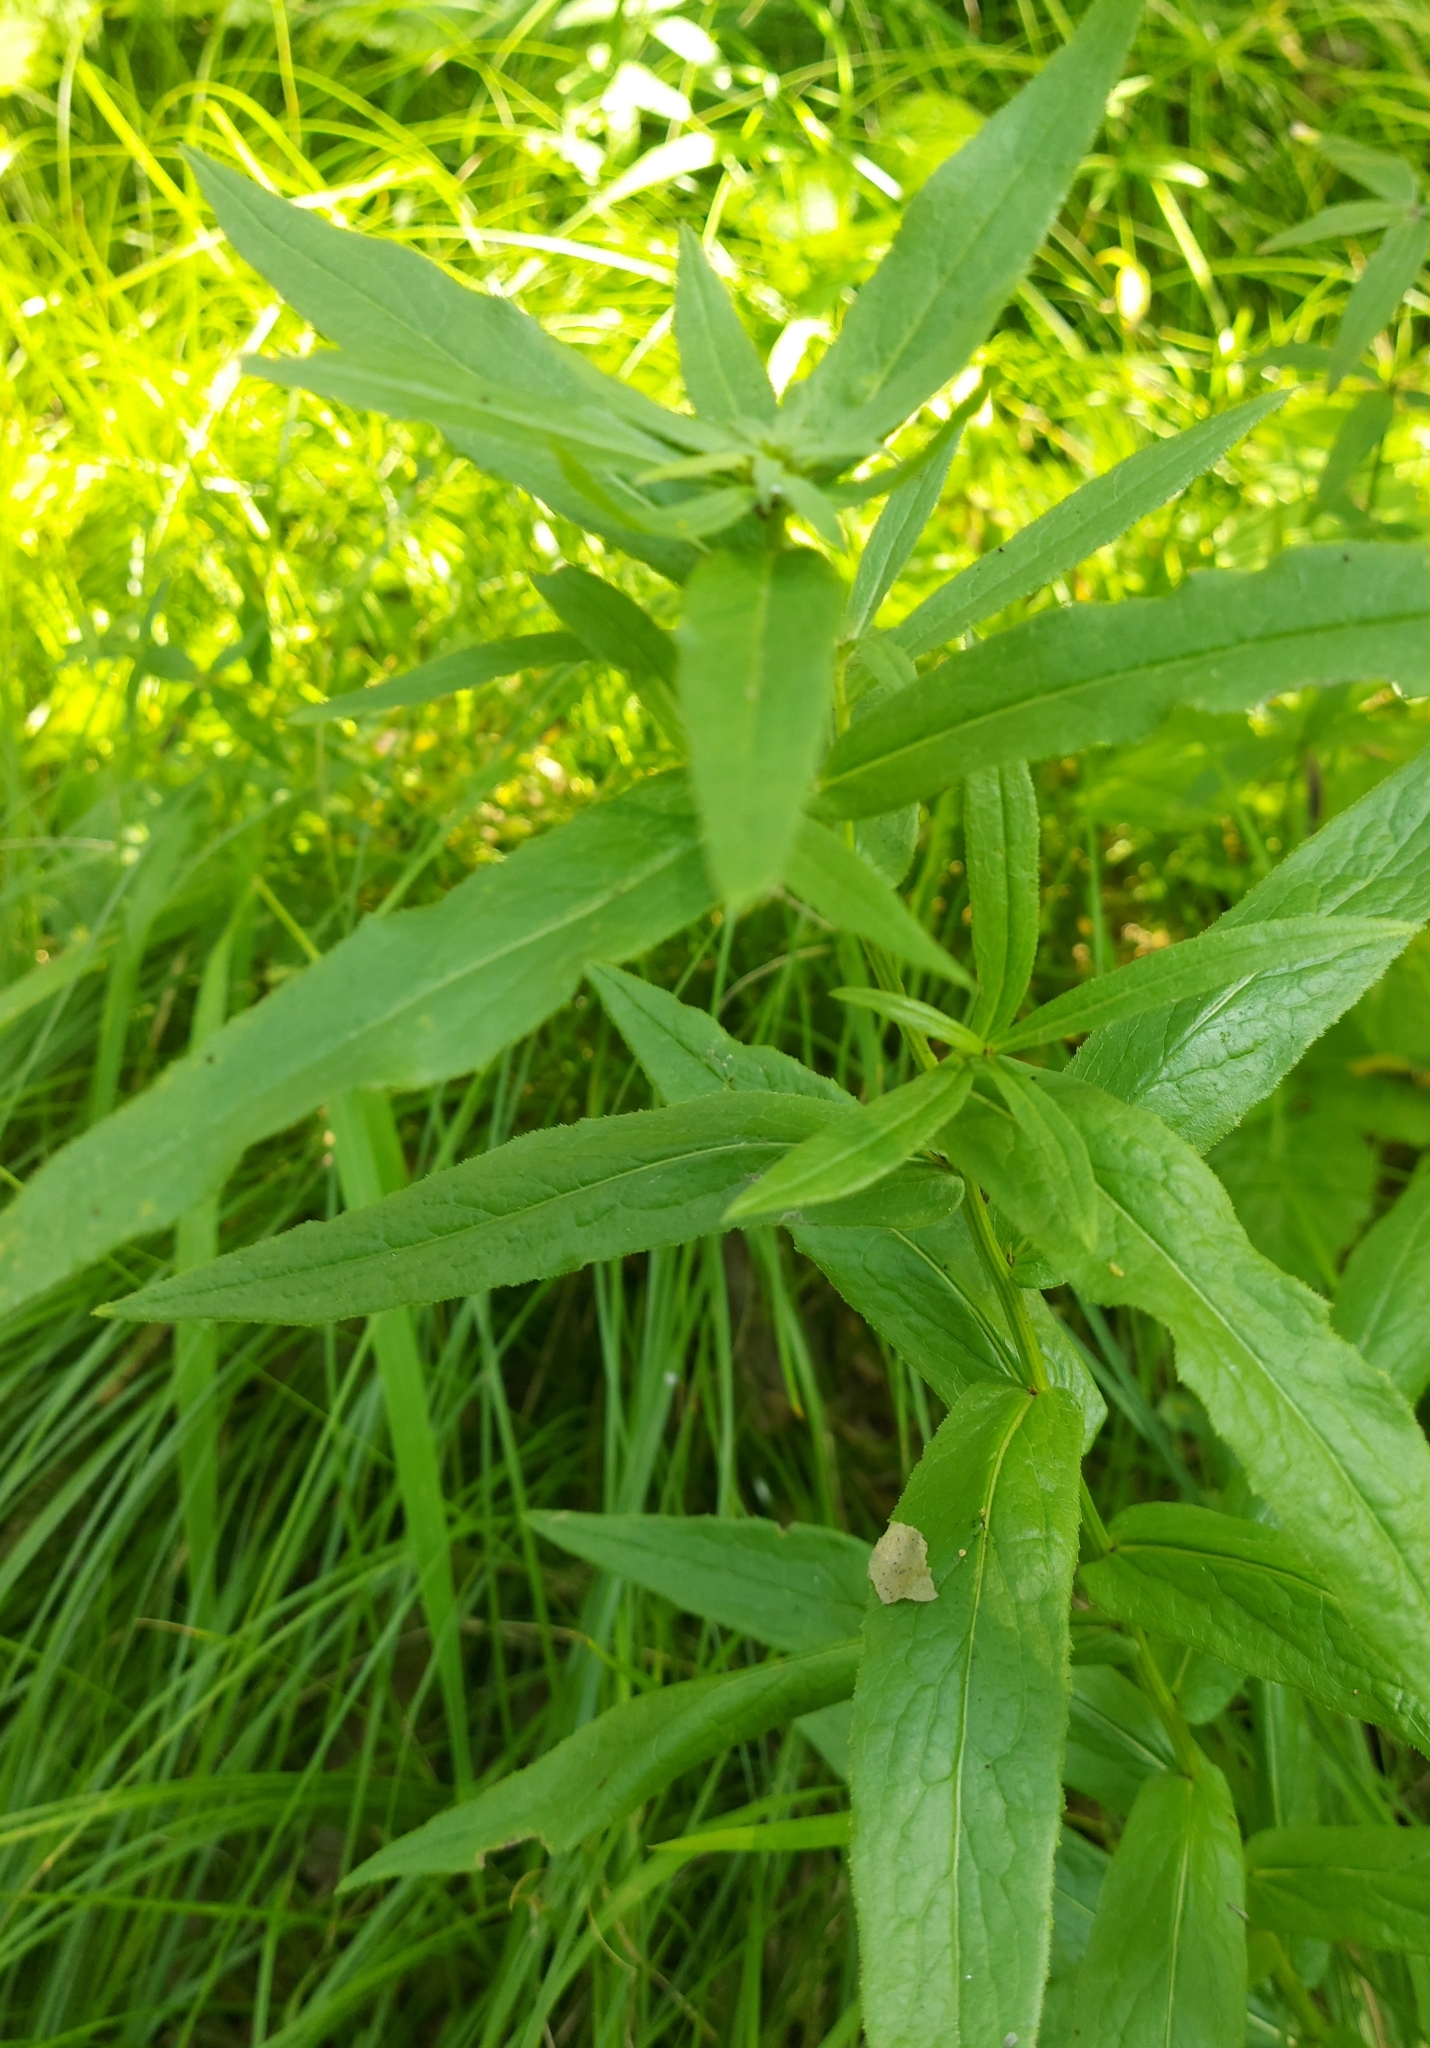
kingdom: Plantae
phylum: Tracheophyta
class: Magnoliopsida
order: Asterales
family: Asteraceae
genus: Pentanema
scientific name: Pentanema salicinum
